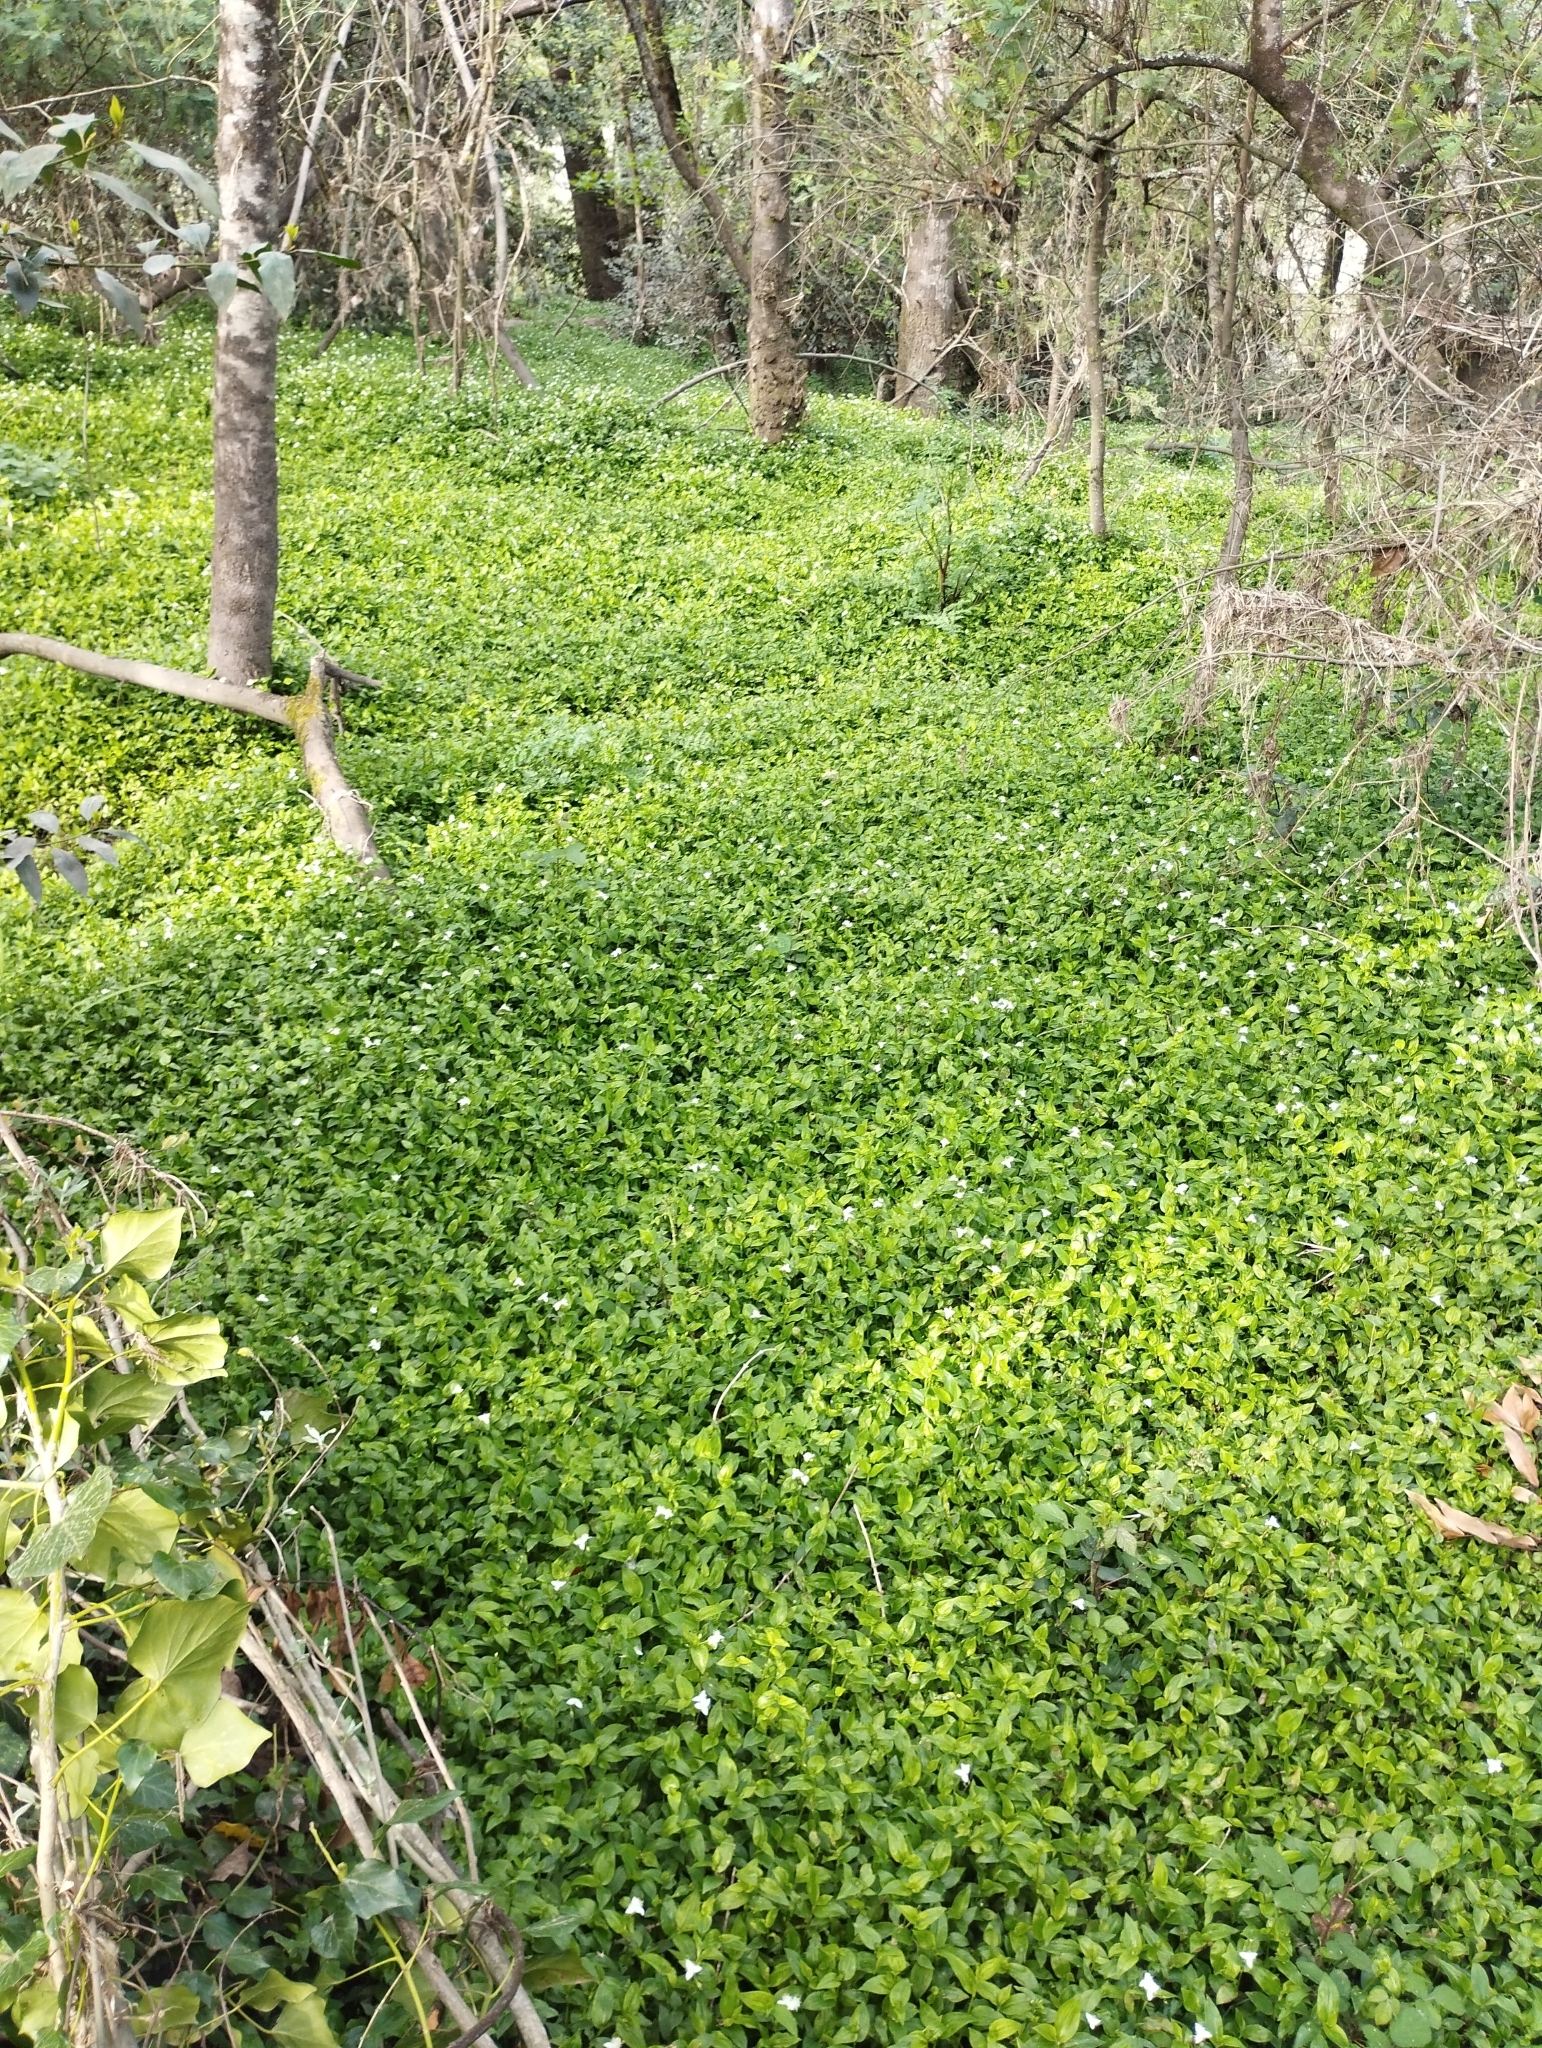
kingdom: Plantae
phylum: Tracheophyta
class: Liliopsida
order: Commelinales
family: Commelinaceae
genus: Tradescantia
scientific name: Tradescantia fluminensis
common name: Wandering-jew
